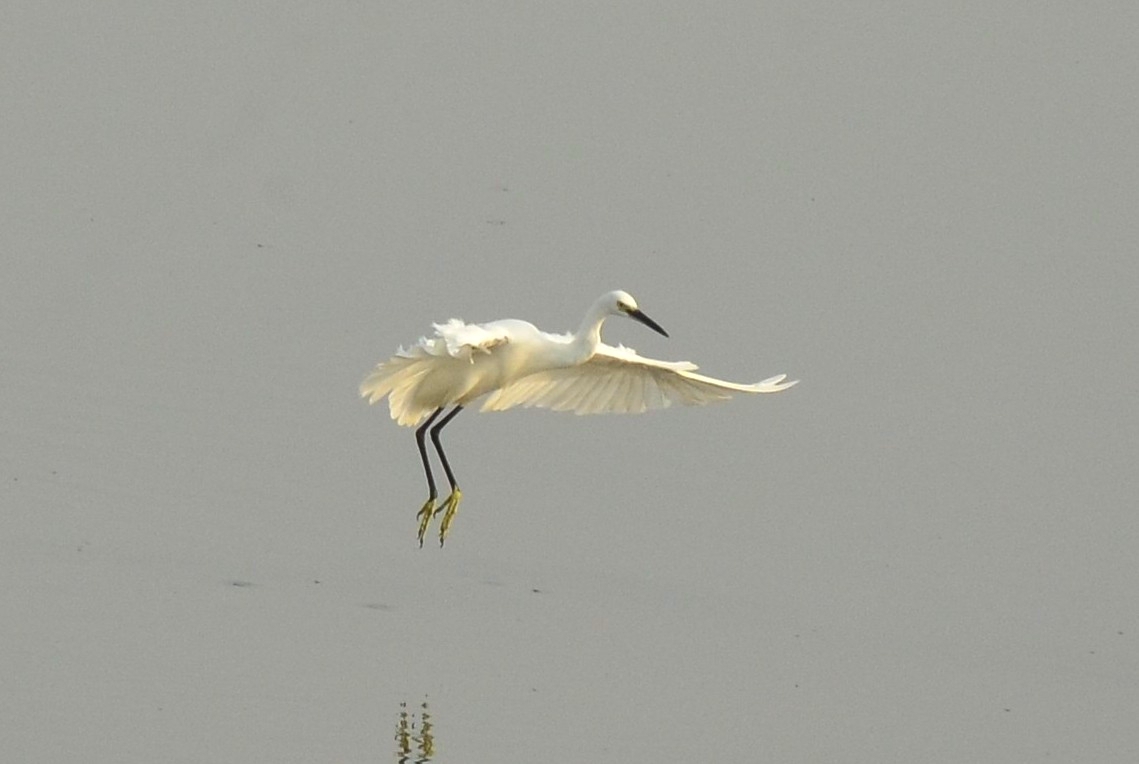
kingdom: Animalia
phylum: Chordata
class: Aves
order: Pelecaniformes
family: Ardeidae
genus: Egretta
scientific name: Egretta garzetta
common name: Little egret
